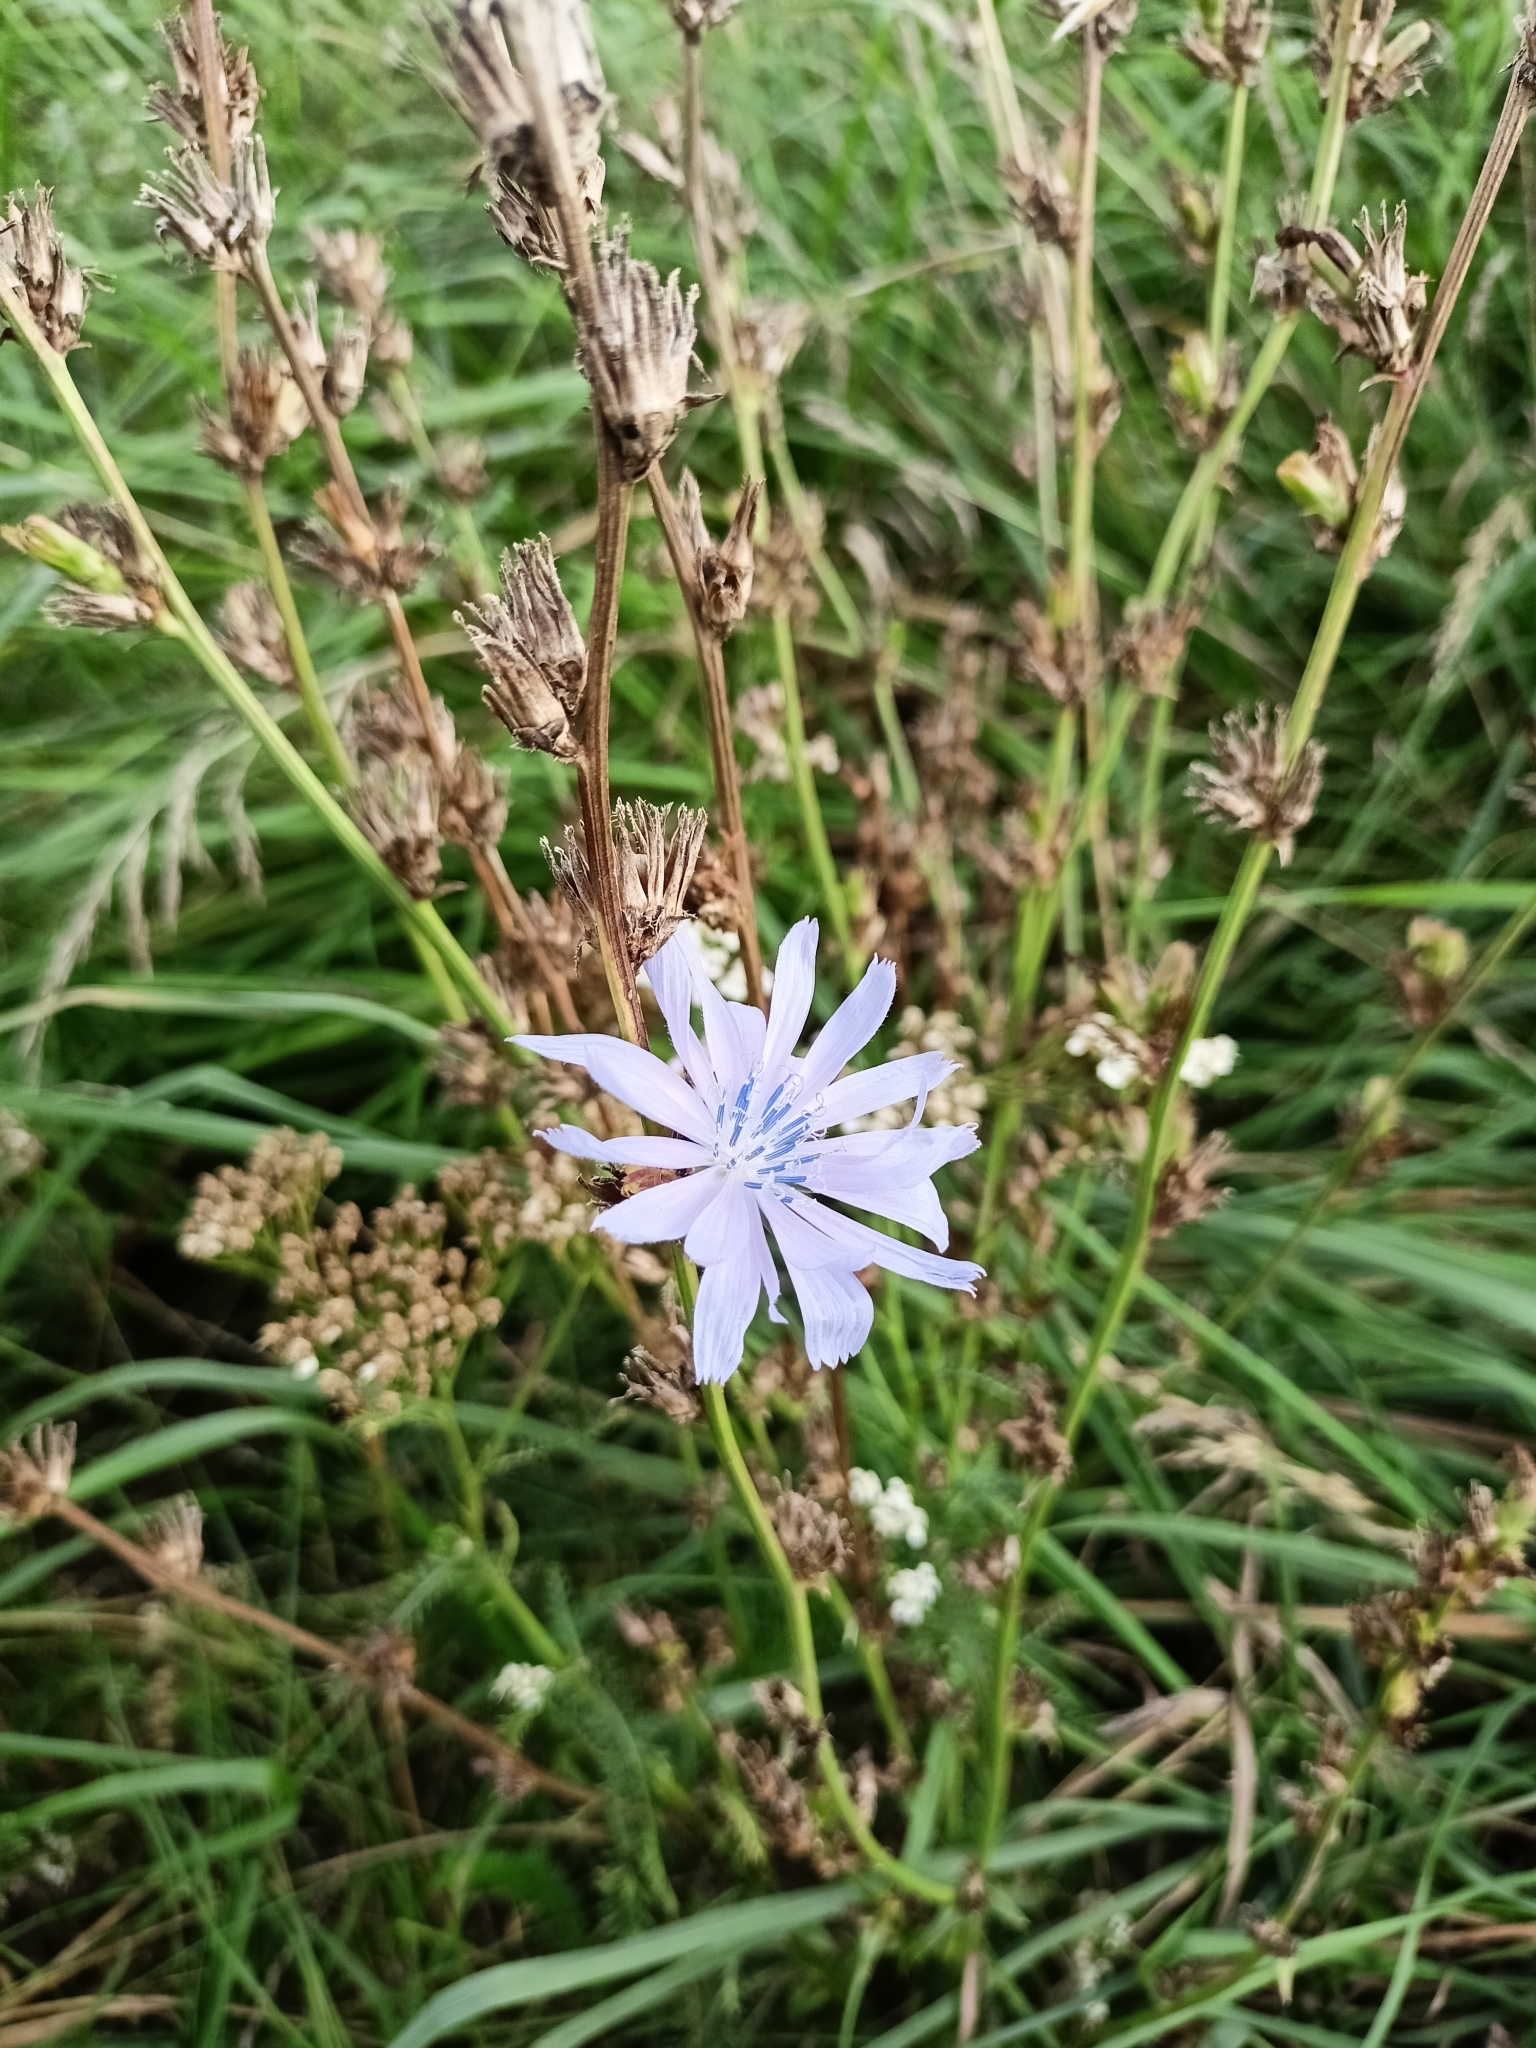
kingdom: Plantae
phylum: Tracheophyta
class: Magnoliopsida
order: Asterales
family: Asteraceae
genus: Cichorium
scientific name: Cichorium intybus
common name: Chicory
